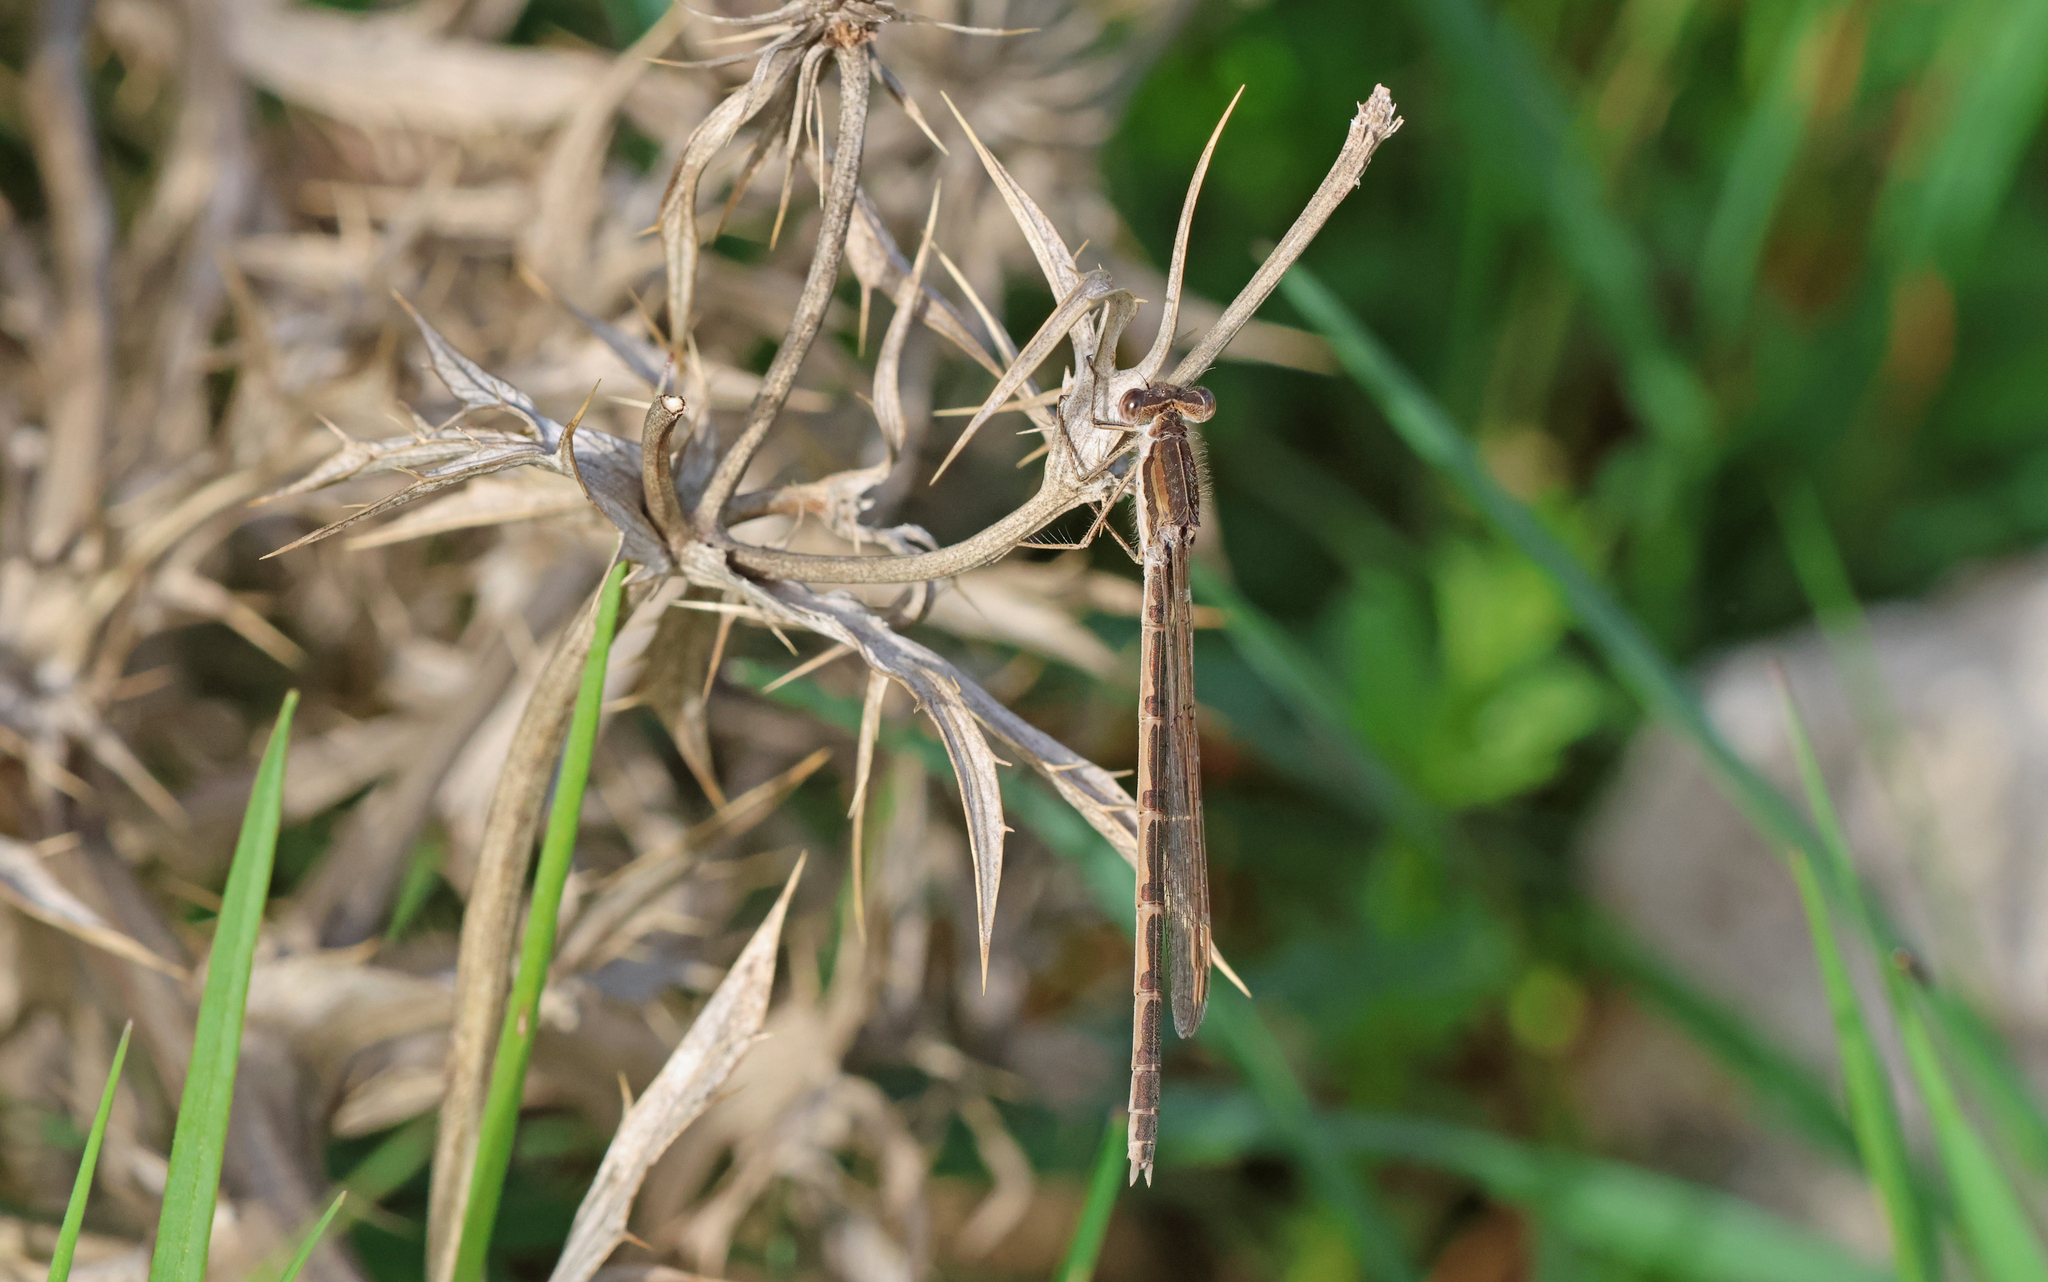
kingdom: Animalia
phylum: Arthropoda
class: Insecta
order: Odonata
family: Lestidae
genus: Sympecma
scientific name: Sympecma fusca
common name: Common winter damsel
